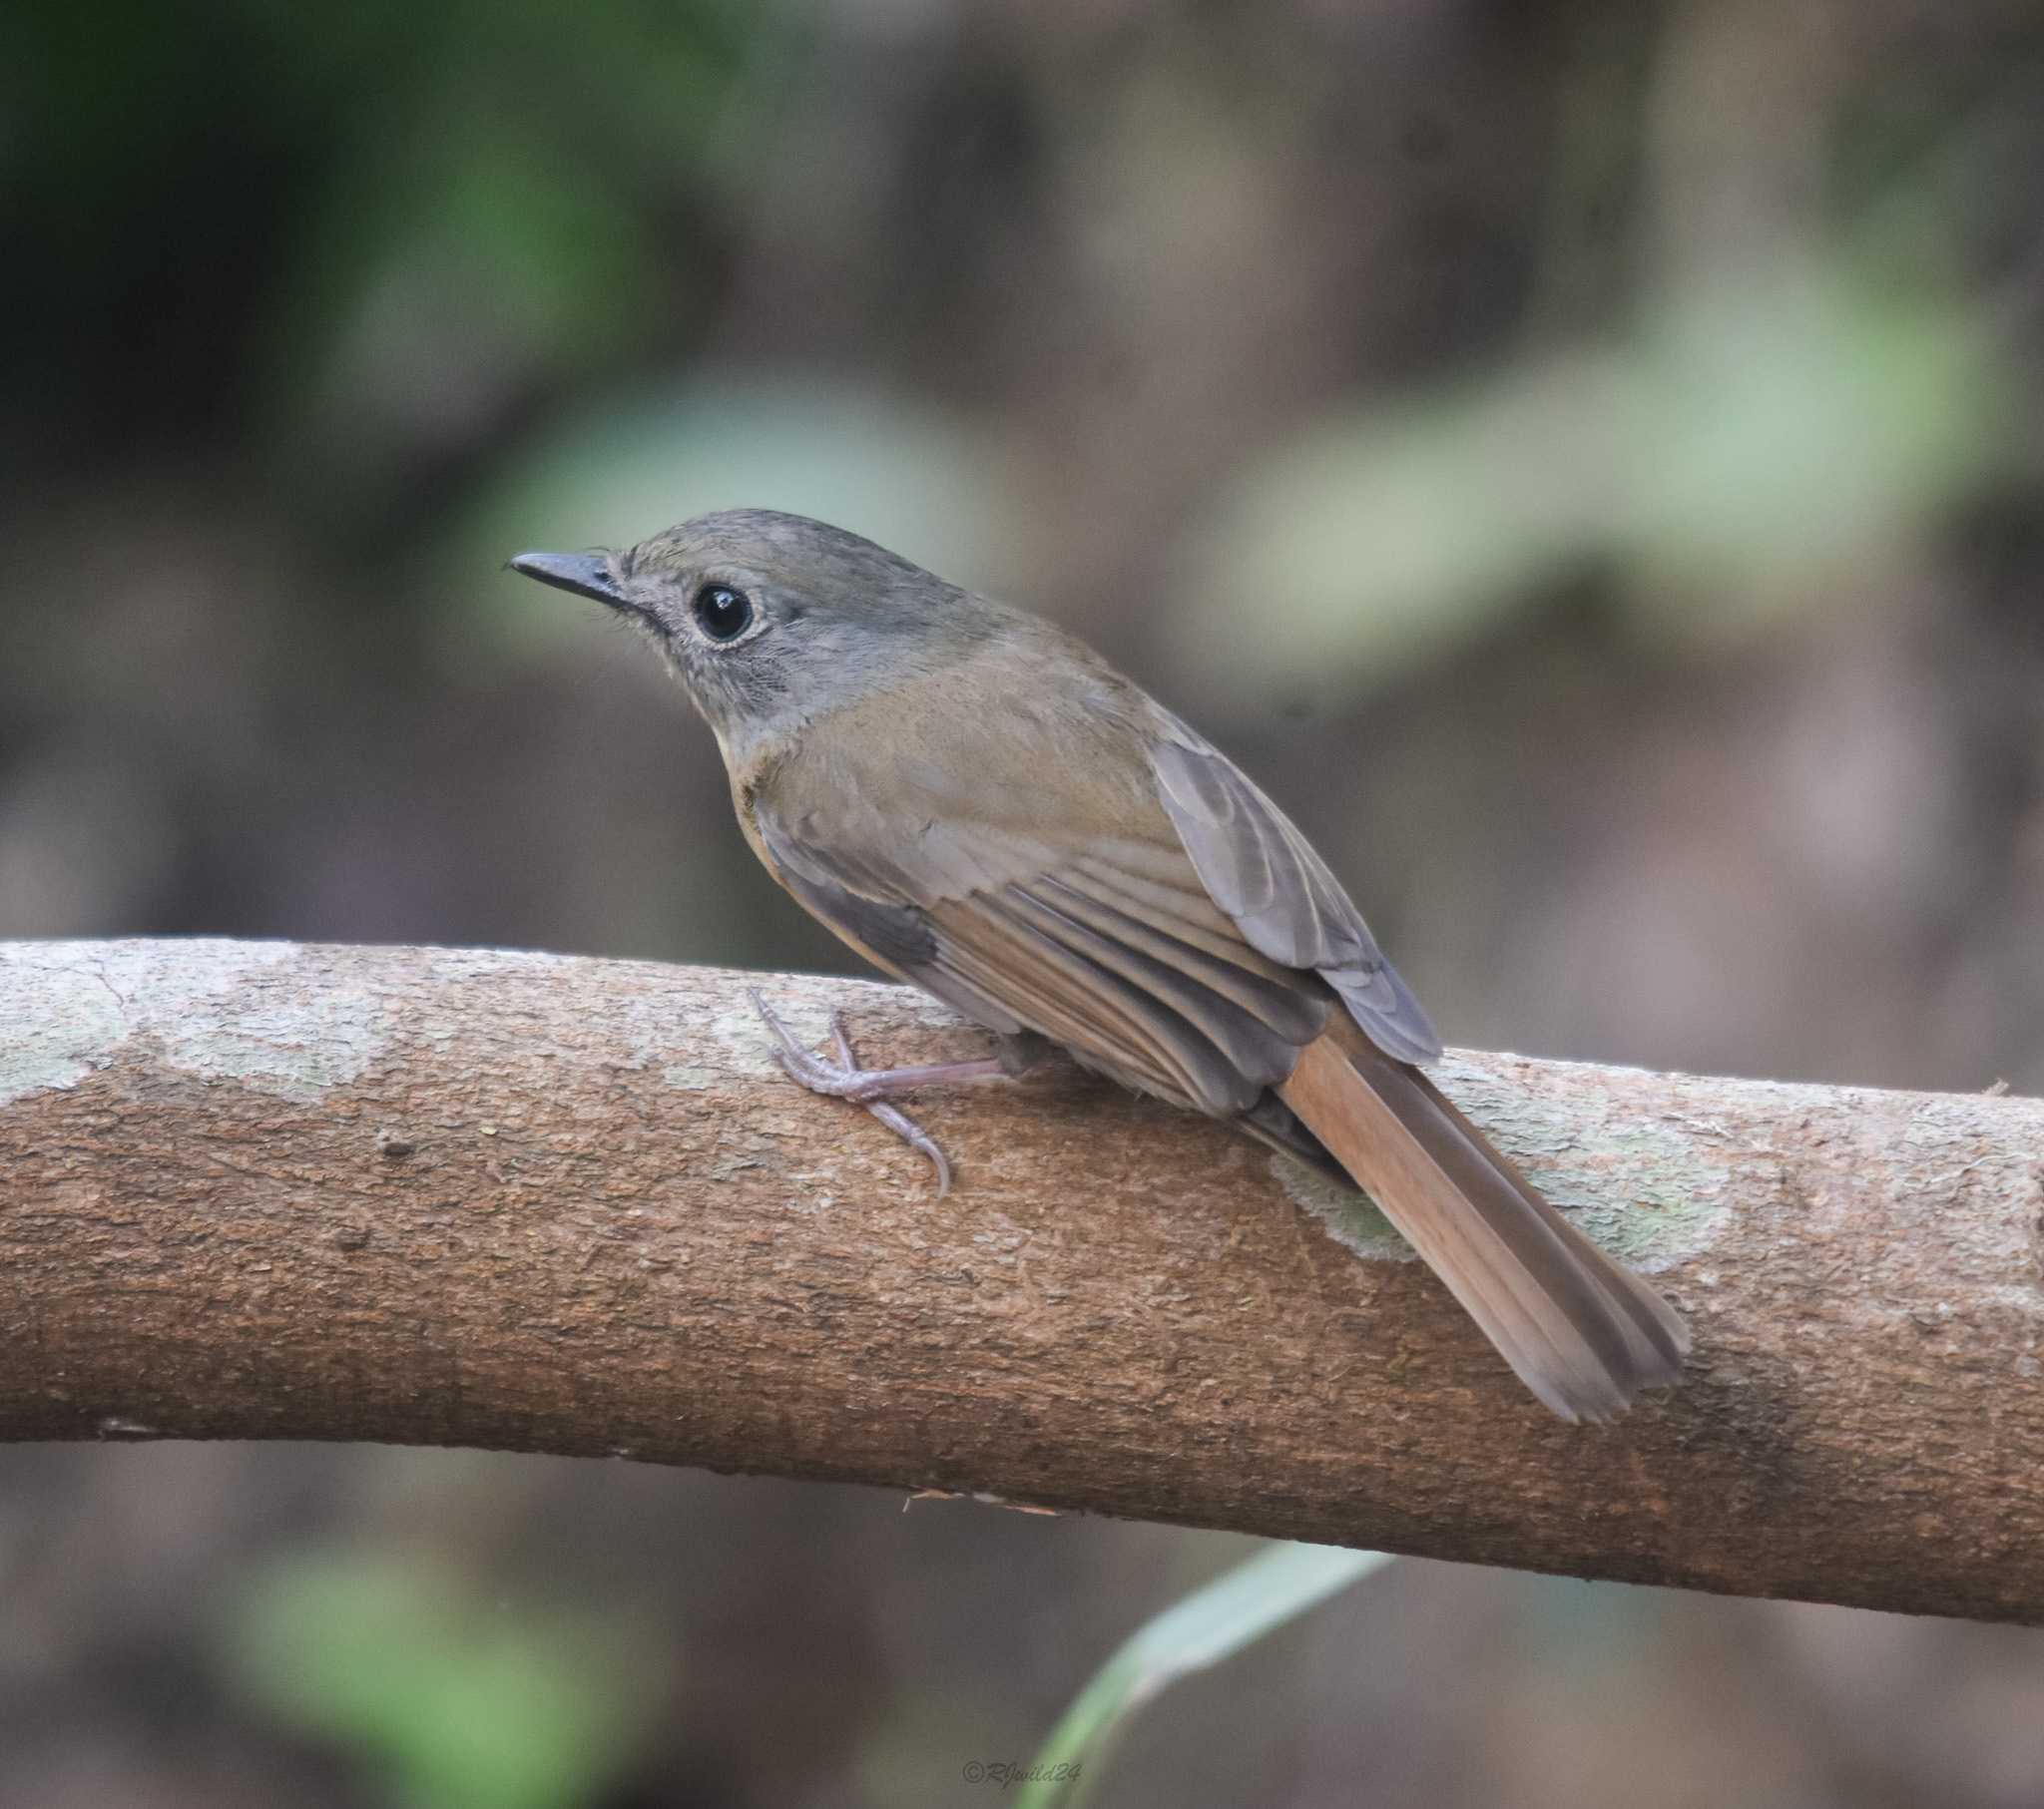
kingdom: Animalia
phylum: Chordata
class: Aves
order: Passeriformes
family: Muscicapidae
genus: Cyornis
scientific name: Cyornis poliogenys
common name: Pale-chinned blue flycatcher
